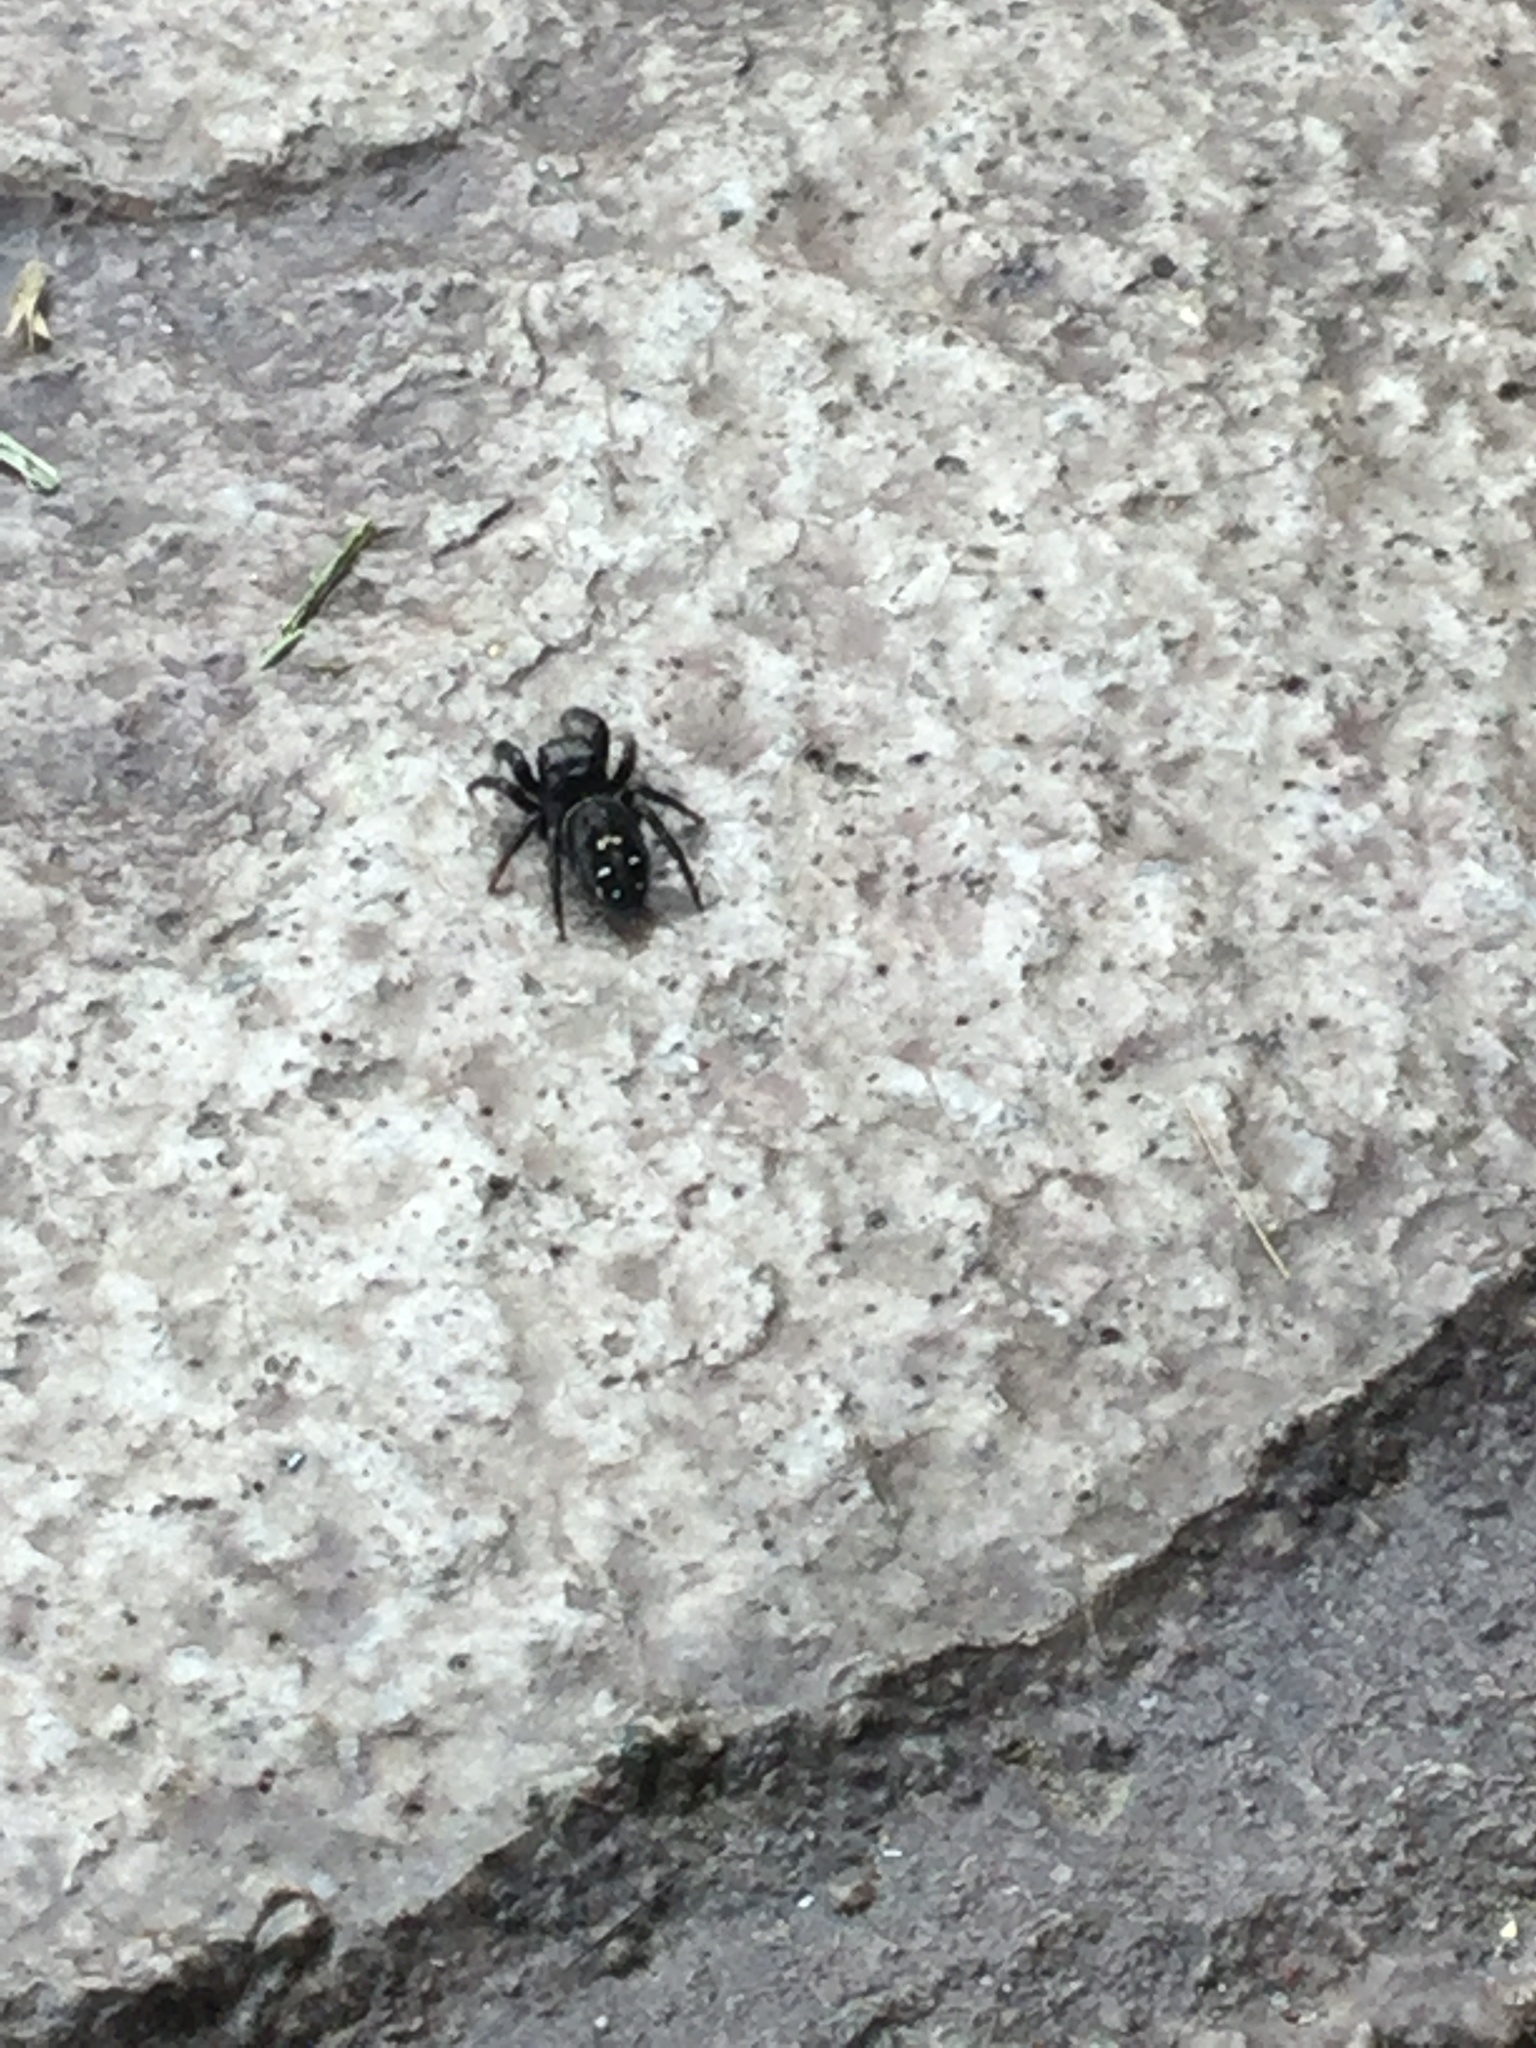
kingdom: Animalia
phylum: Arthropoda
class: Arachnida
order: Araneae
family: Salticidae
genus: Phidippus
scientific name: Phidippus johnsoni
